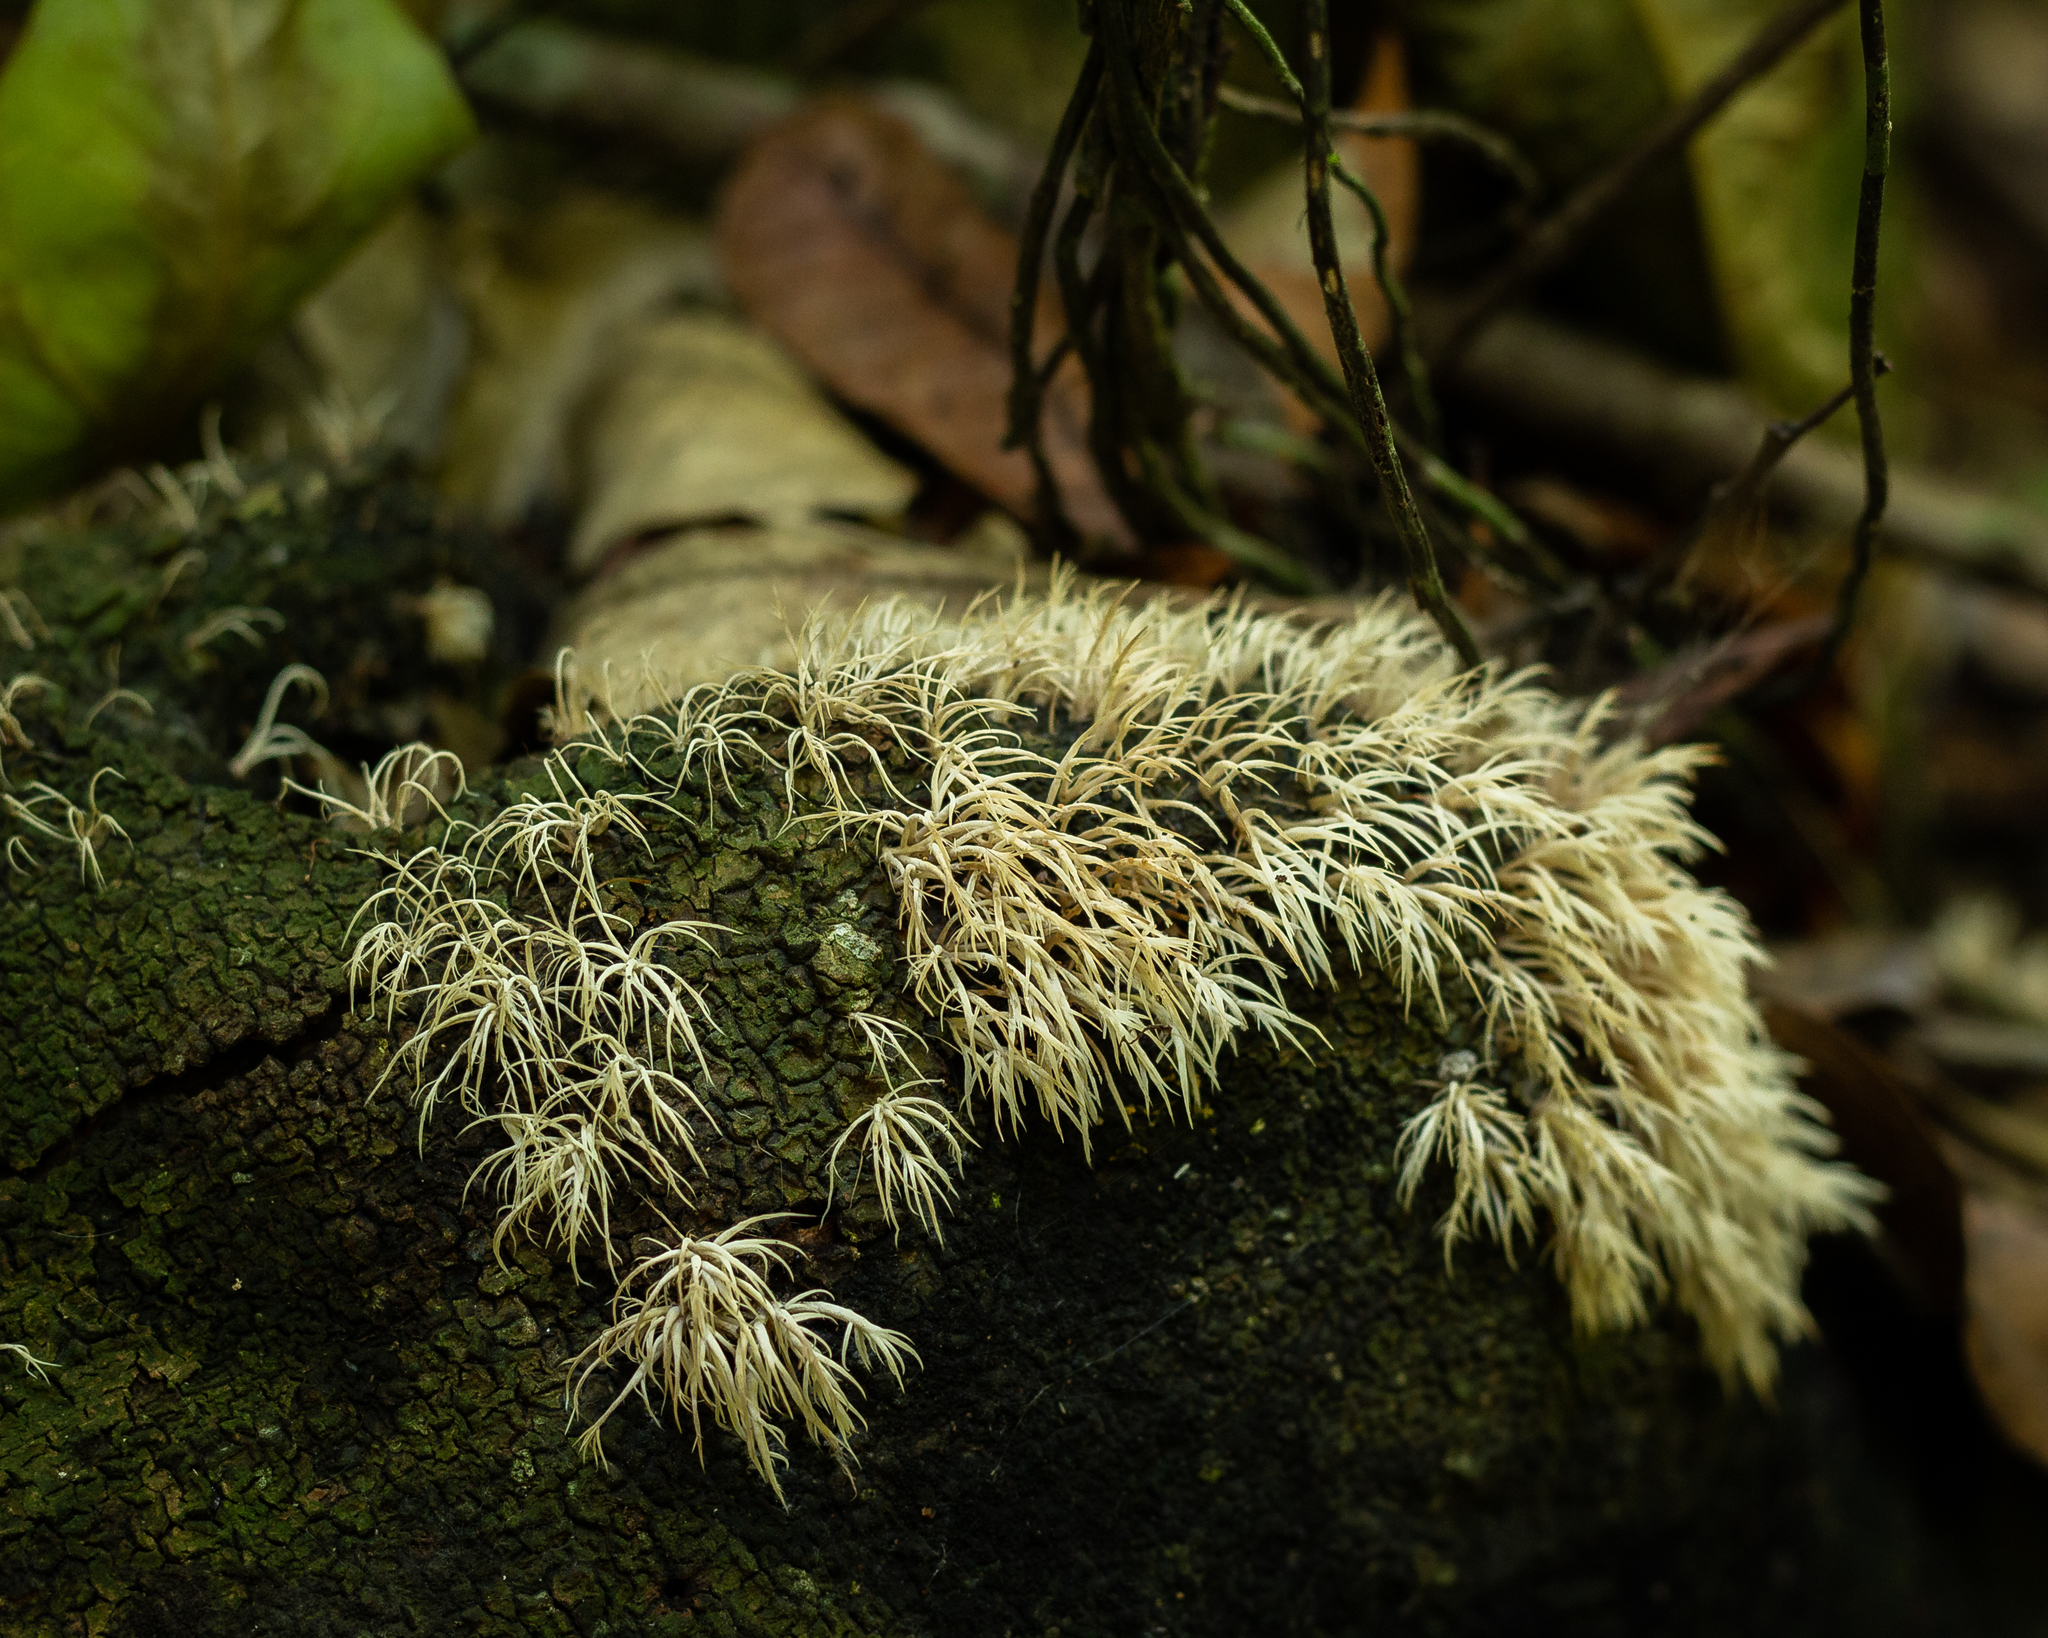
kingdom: Fungi
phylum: Basidiomycota
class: Agaricomycetes
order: Agaricales
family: Pterulaceae
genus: Pterulicium
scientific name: Pterulicium subsimplex
